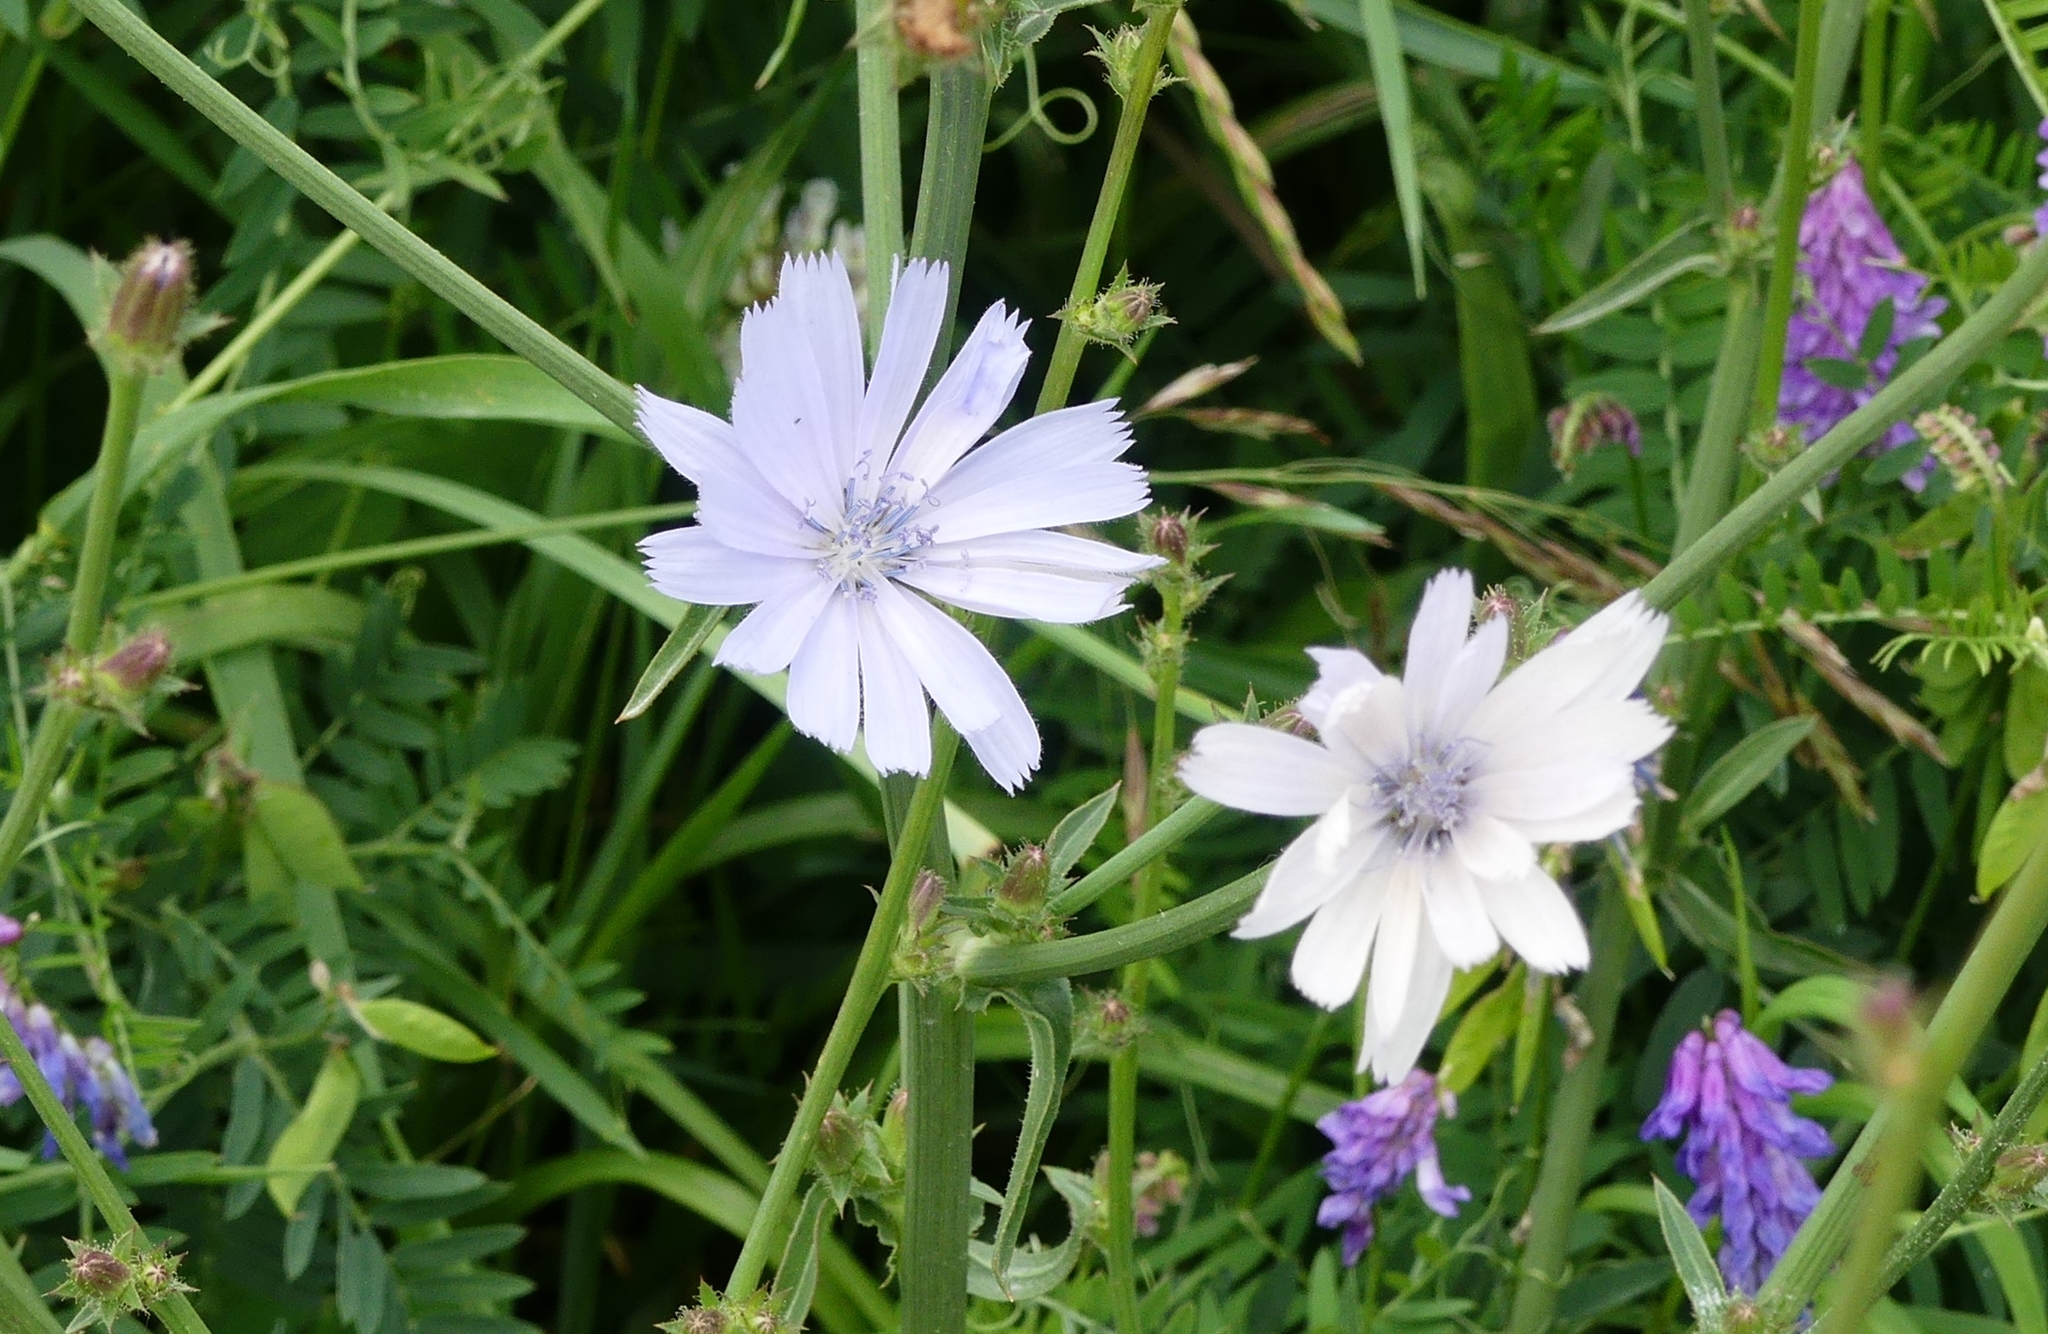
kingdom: Plantae
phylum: Tracheophyta
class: Magnoliopsida
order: Asterales
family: Asteraceae
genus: Cichorium
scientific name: Cichorium intybus
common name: Chicory
